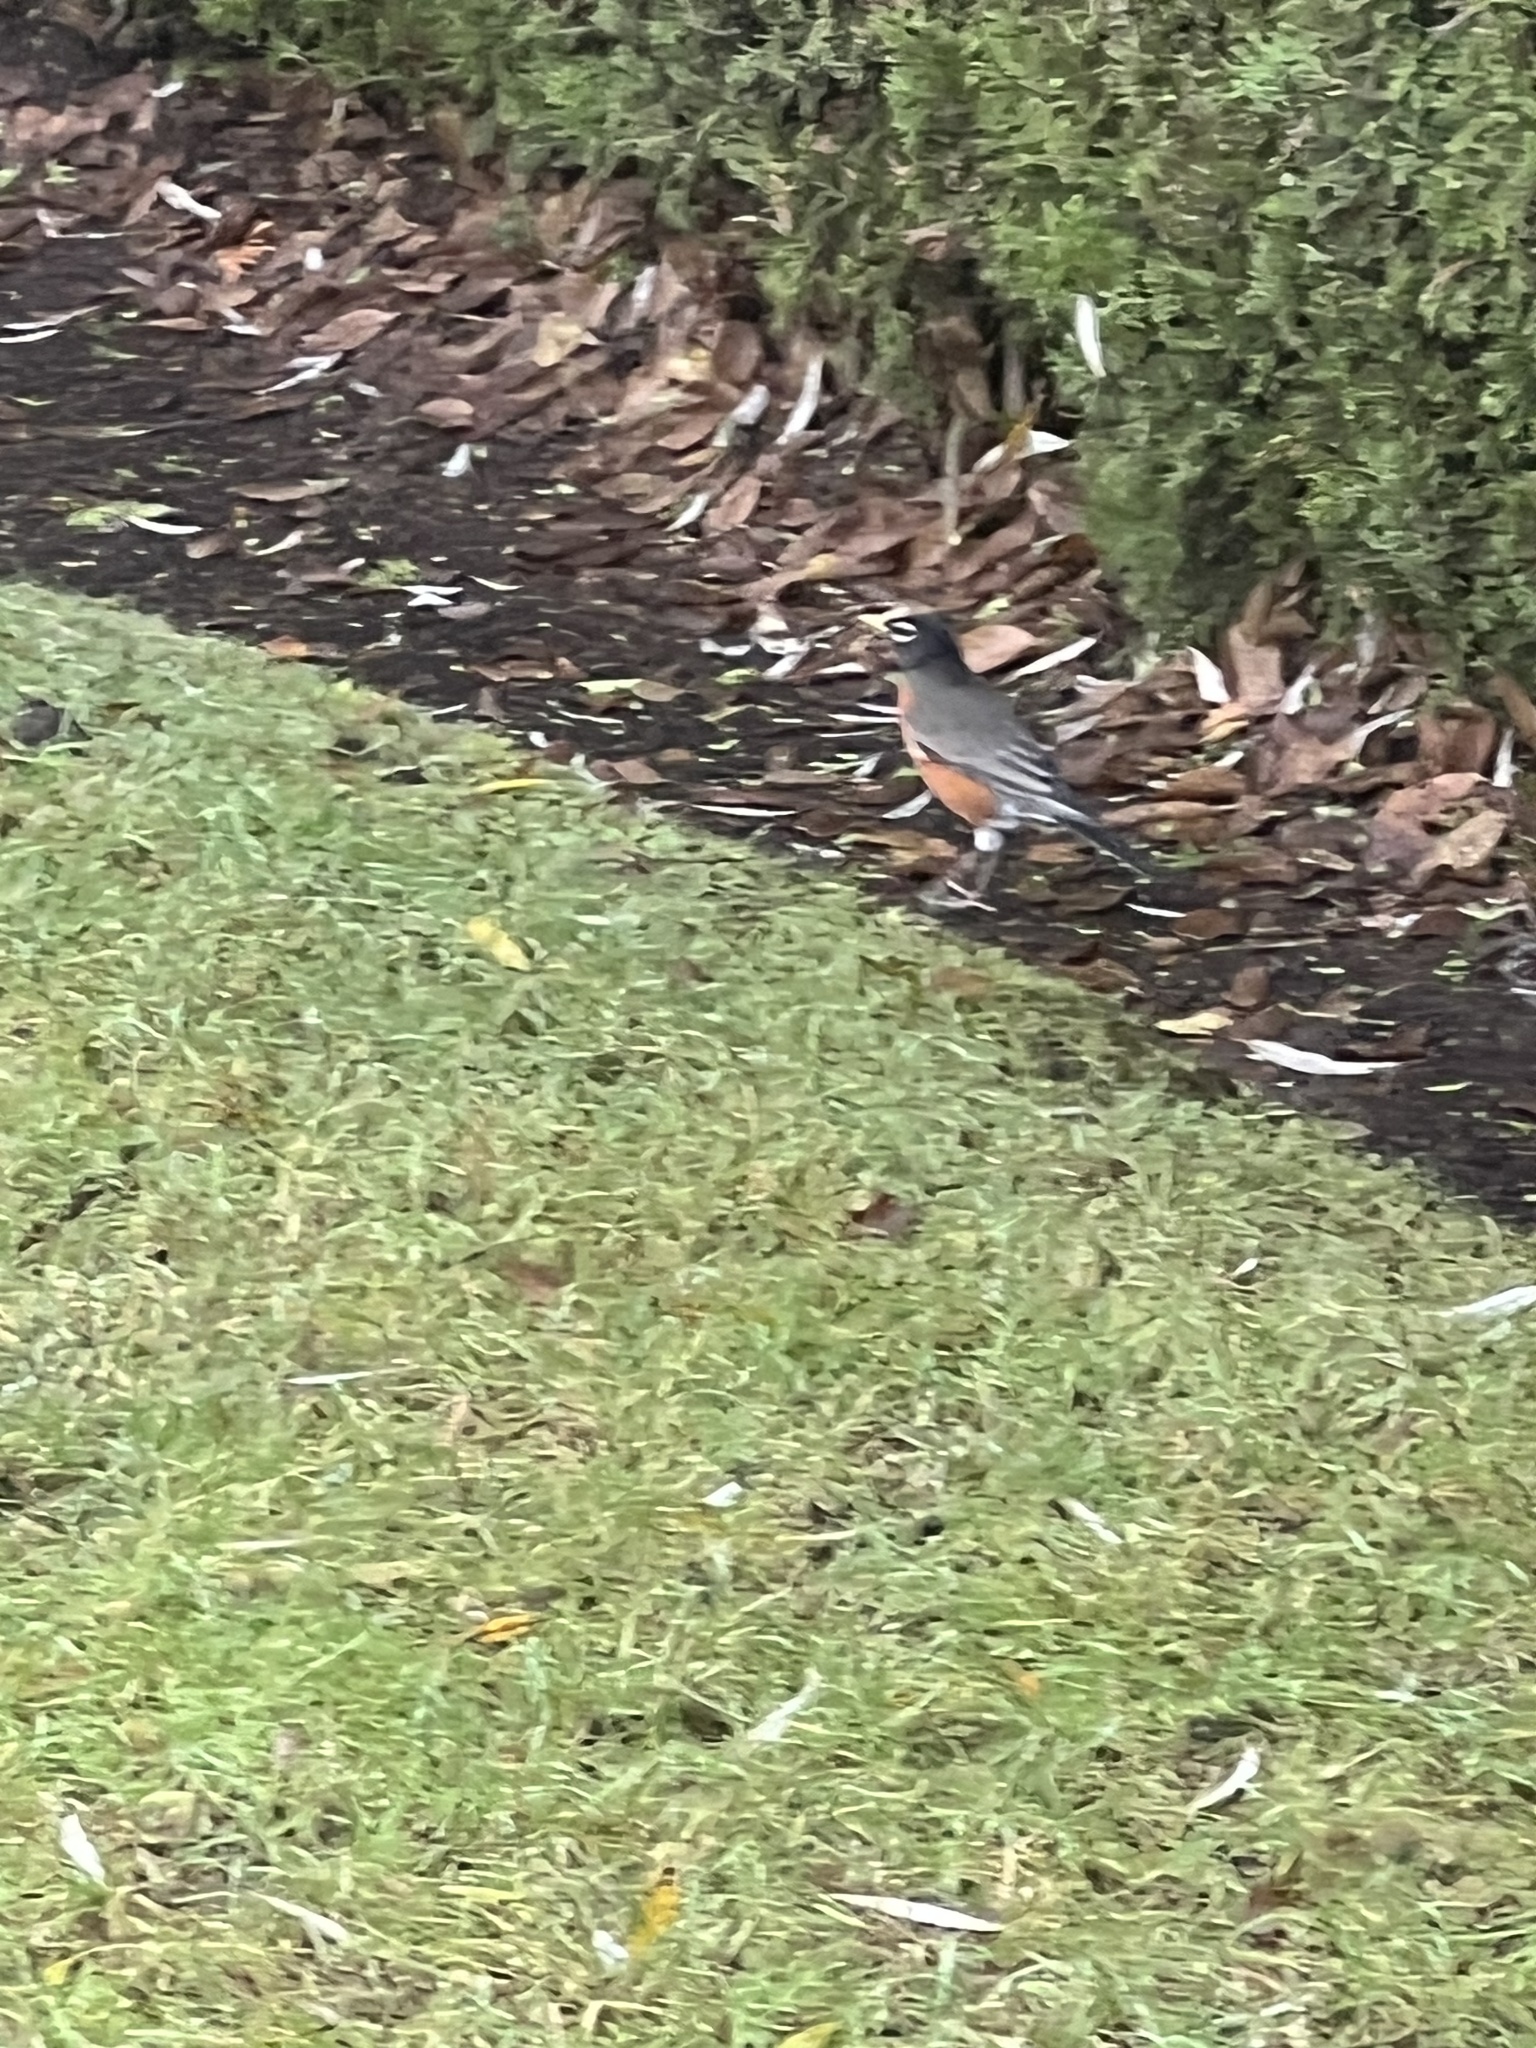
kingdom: Animalia
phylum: Chordata
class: Aves
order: Passeriformes
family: Turdidae
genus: Turdus
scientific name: Turdus migratorius
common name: American robin
